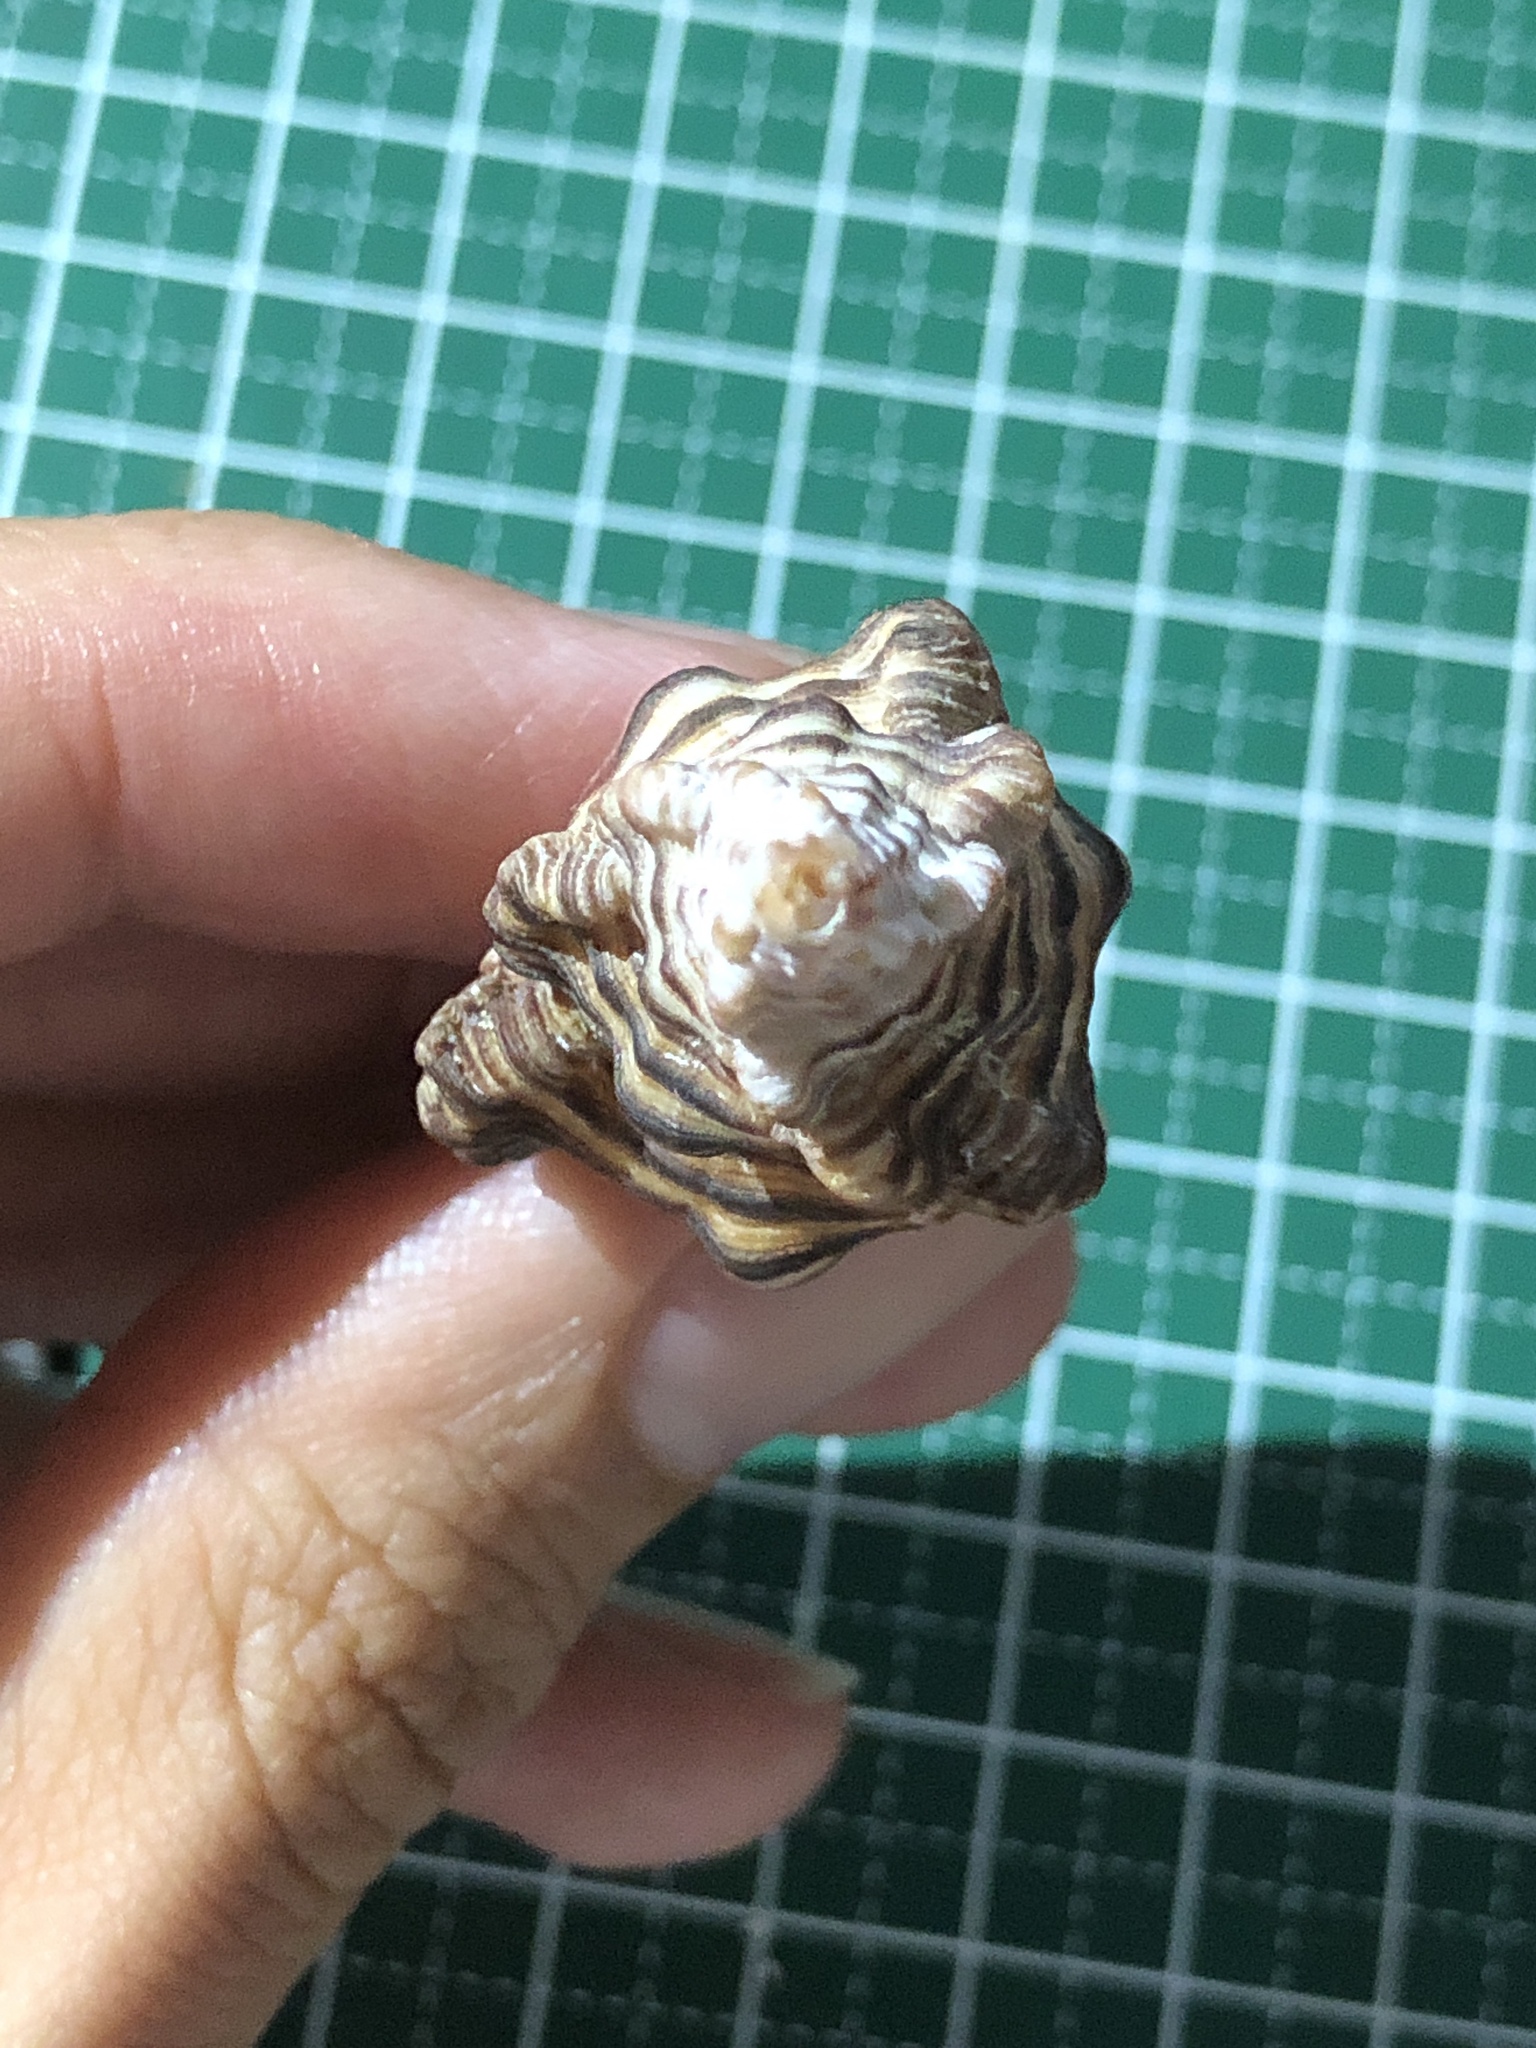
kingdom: Animalia
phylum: Mollusca
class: Gastropoda
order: Neogastropoda
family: Muricidae
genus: Chicoreus
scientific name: Chicoreus strigatus
